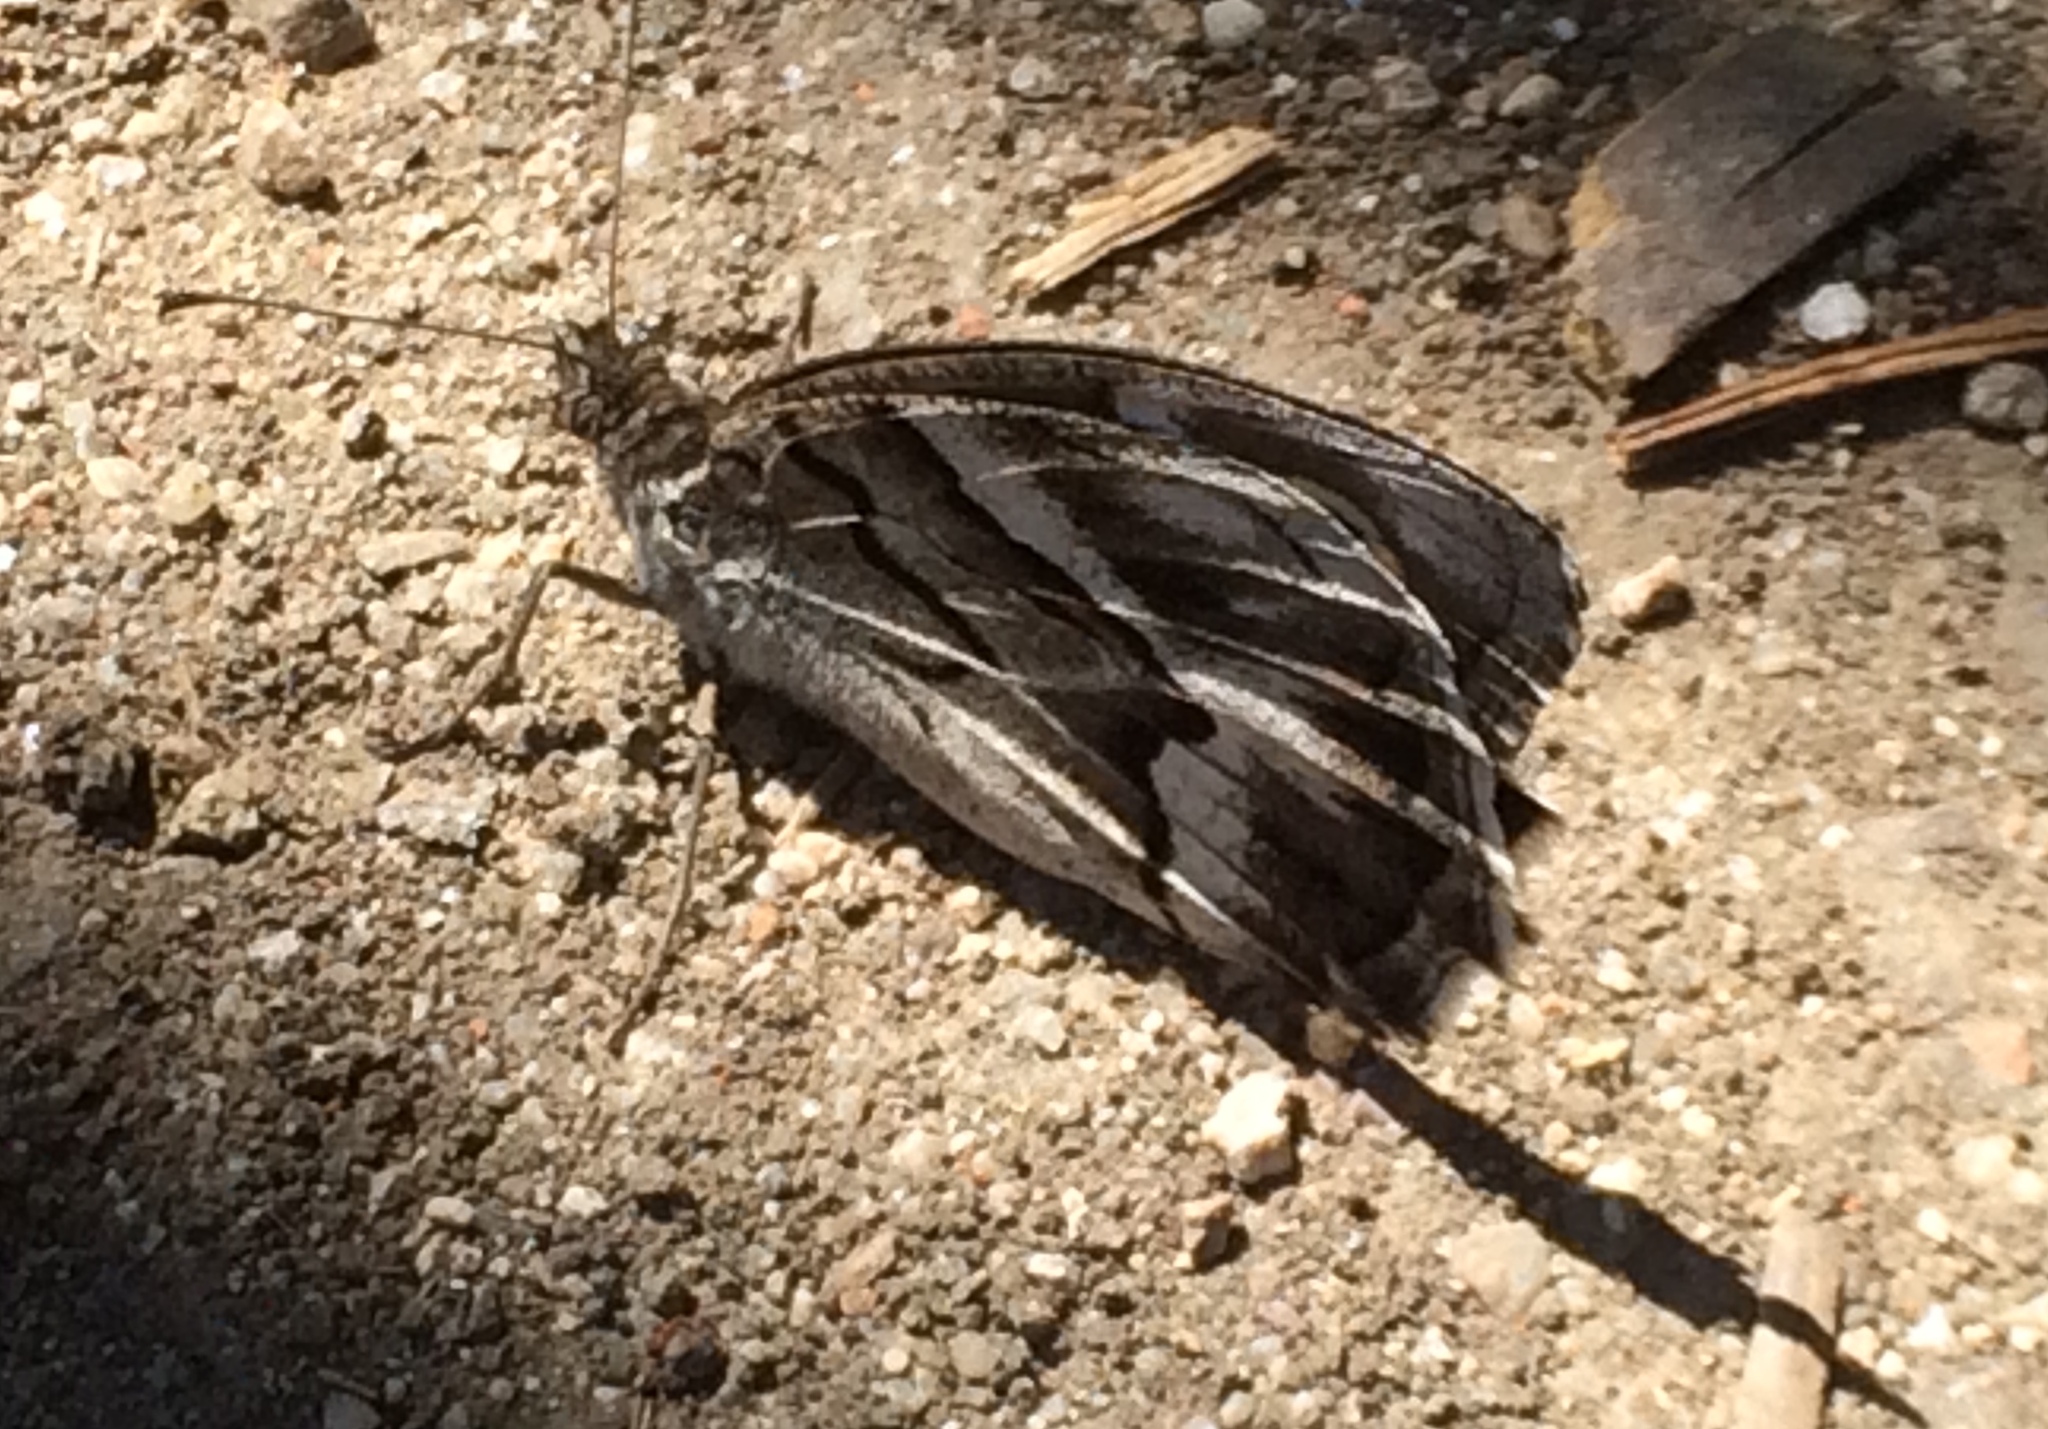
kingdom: Animalia
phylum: Arthropoda
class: Insecta
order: Lepidoptera
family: Nymphalidae
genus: Hipparchia
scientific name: Hipparchia fidia
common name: Striped grayling
